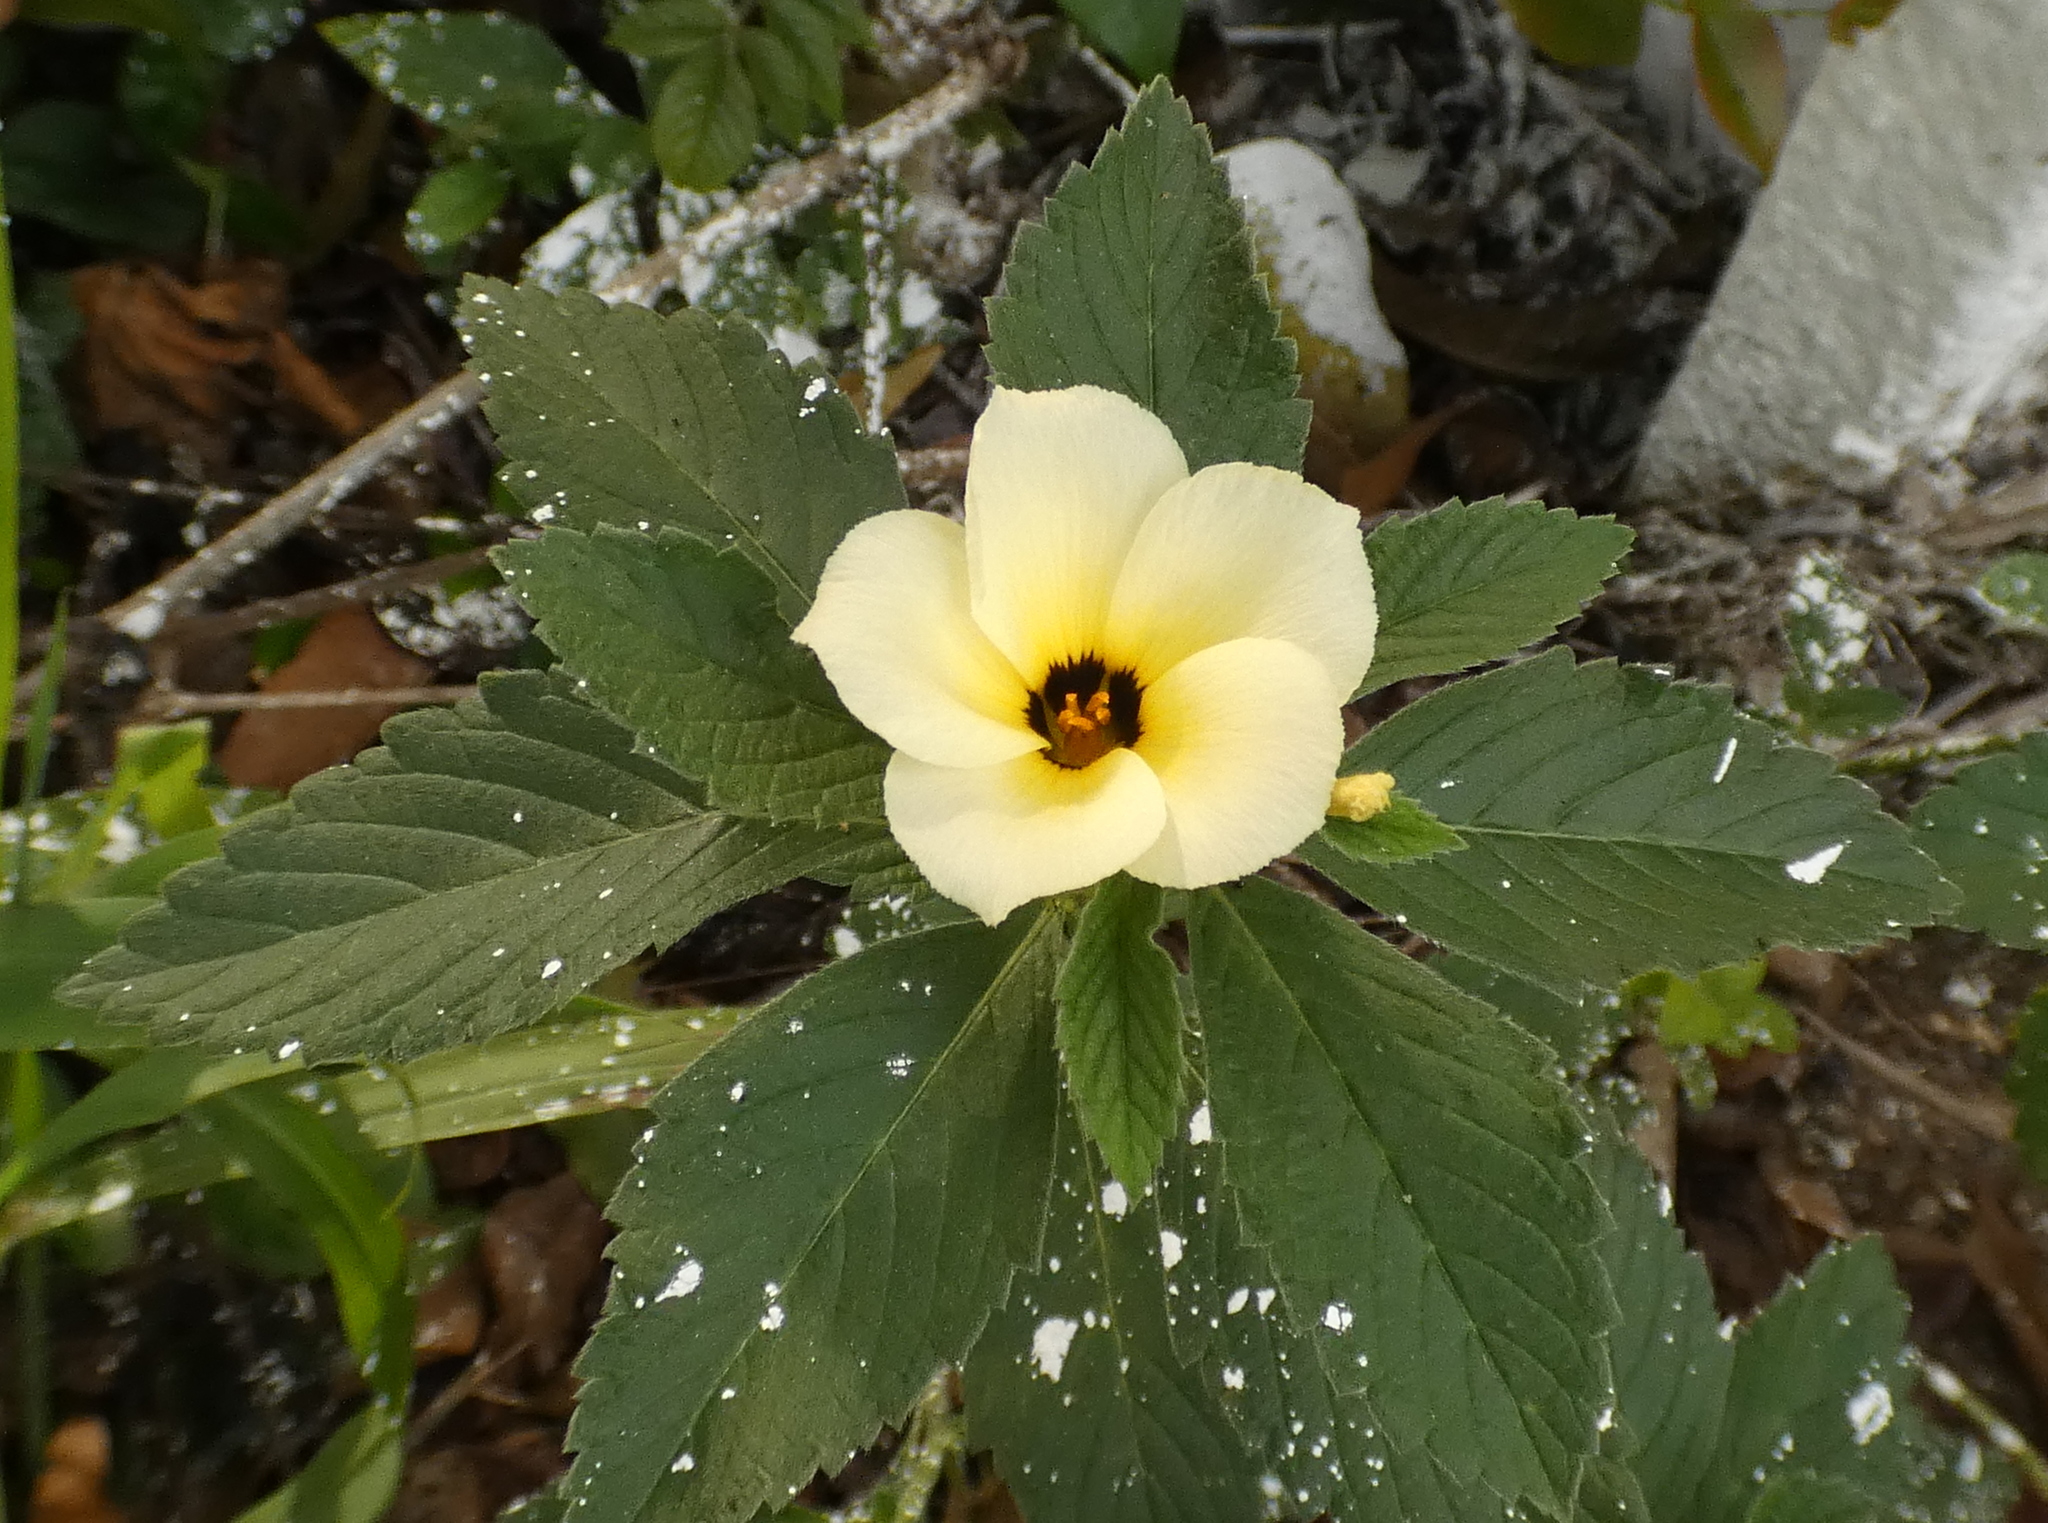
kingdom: Plantae
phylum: Tracheophyta
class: Magnoliopsida
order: Malpighiales
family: Turneraceae
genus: Turnera
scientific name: Turnera subulata
